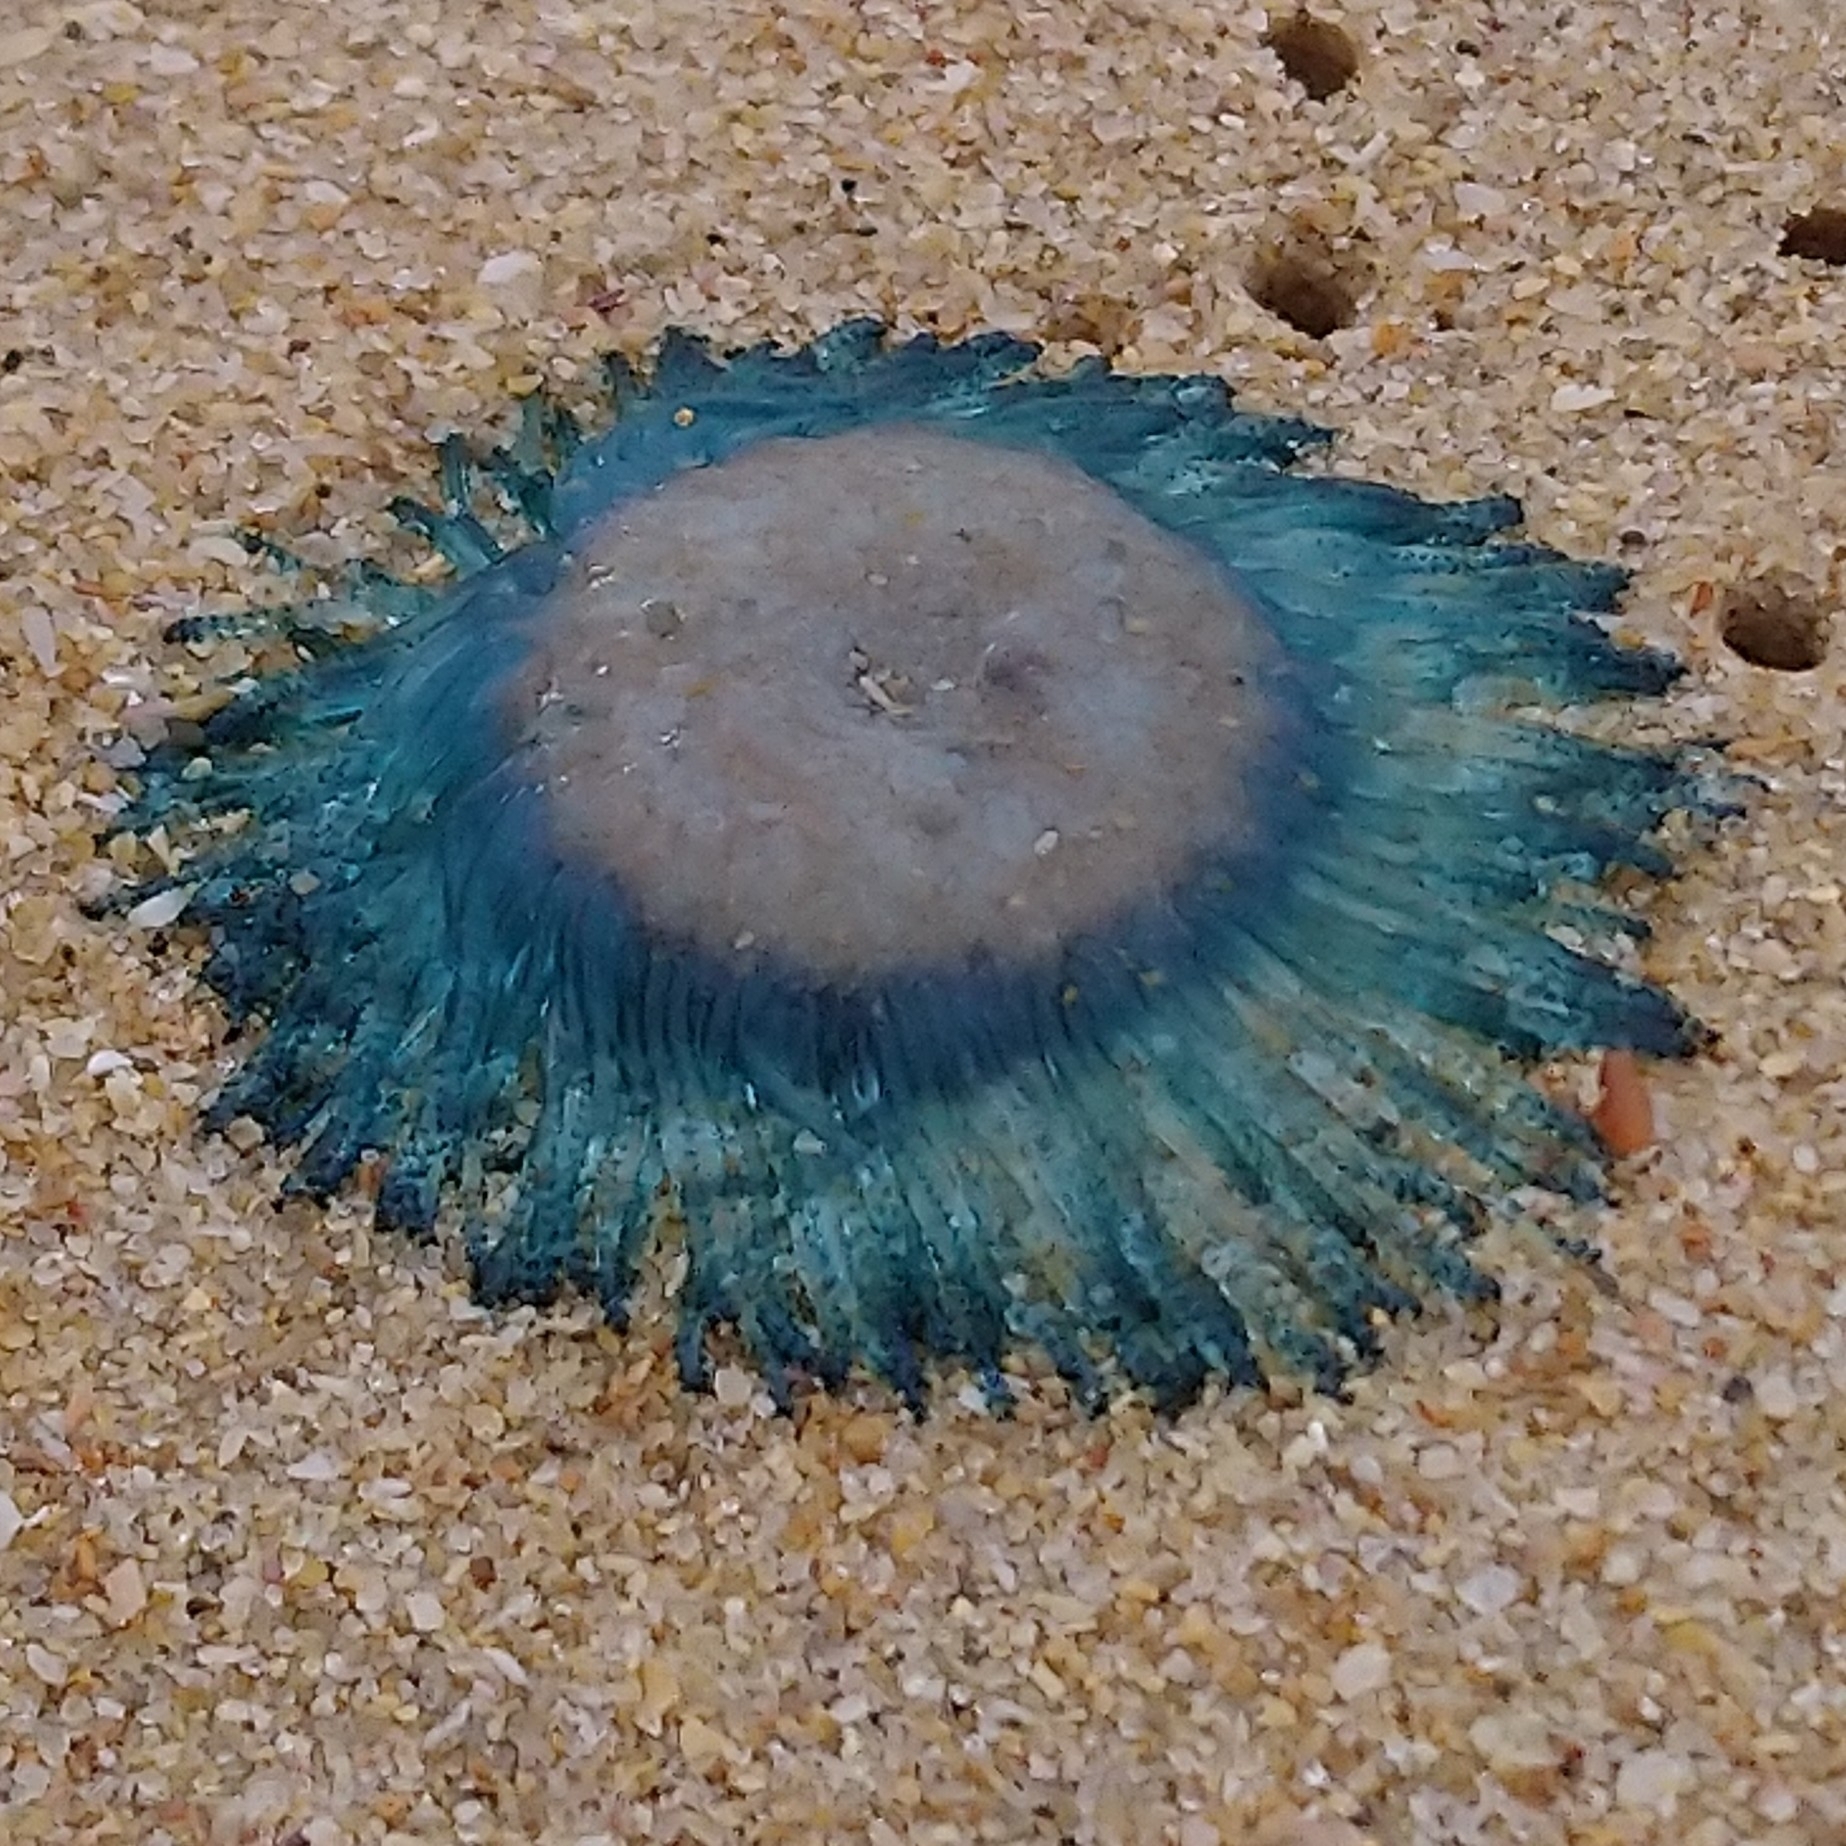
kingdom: Animalia
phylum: Cnidaria
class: Hydrozoa
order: Anthoathecata
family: Porpitidae
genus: Porpita
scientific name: Porpita porpita
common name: Blue button
